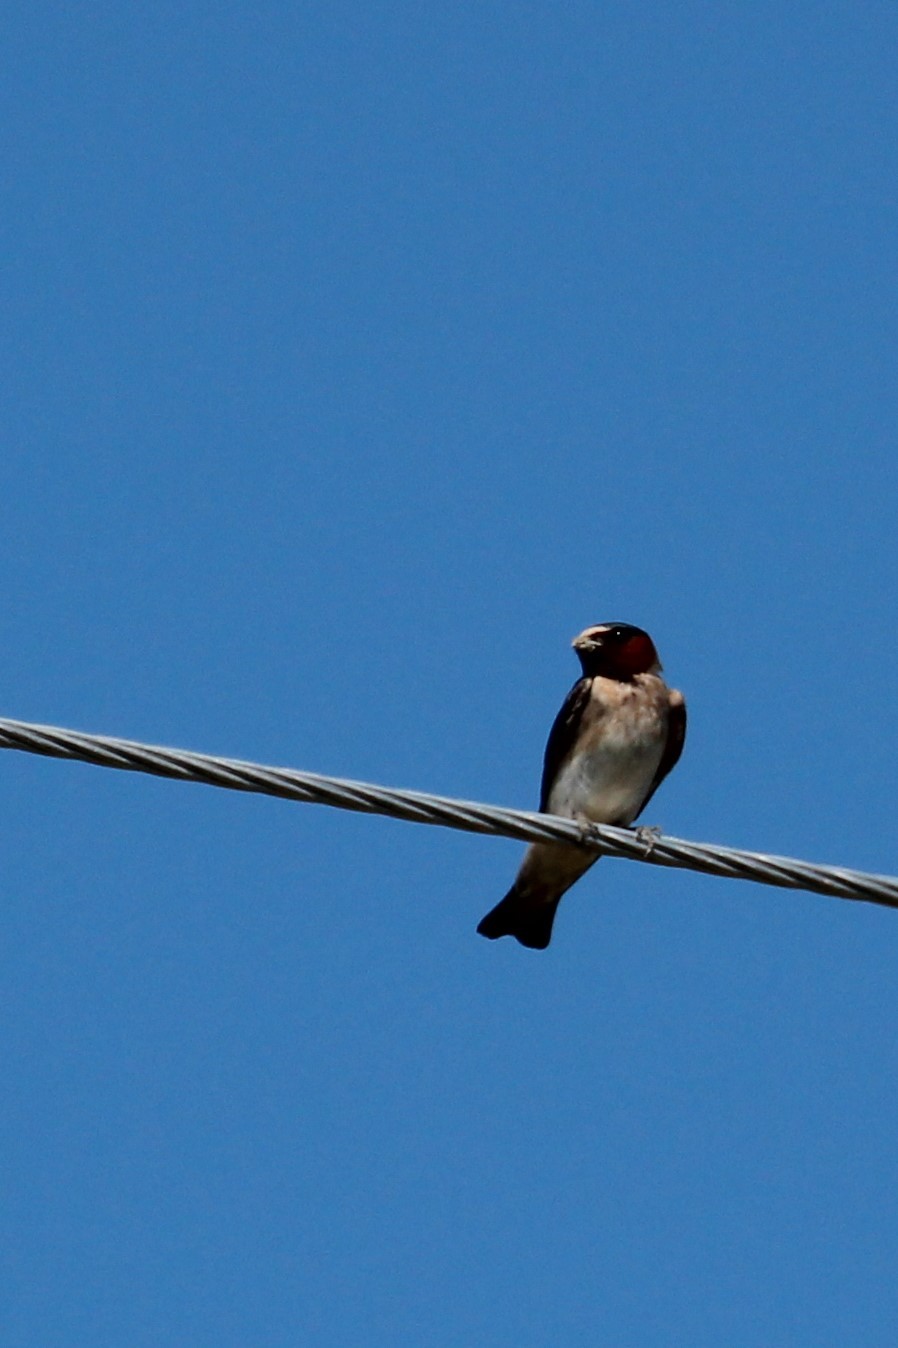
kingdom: Animalia
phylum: Chordata
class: Aves
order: Passeriformes
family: Hirundinidae
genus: Petrochelidon
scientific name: Petrochelidon pyrrhonota
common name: American cliff swallow
